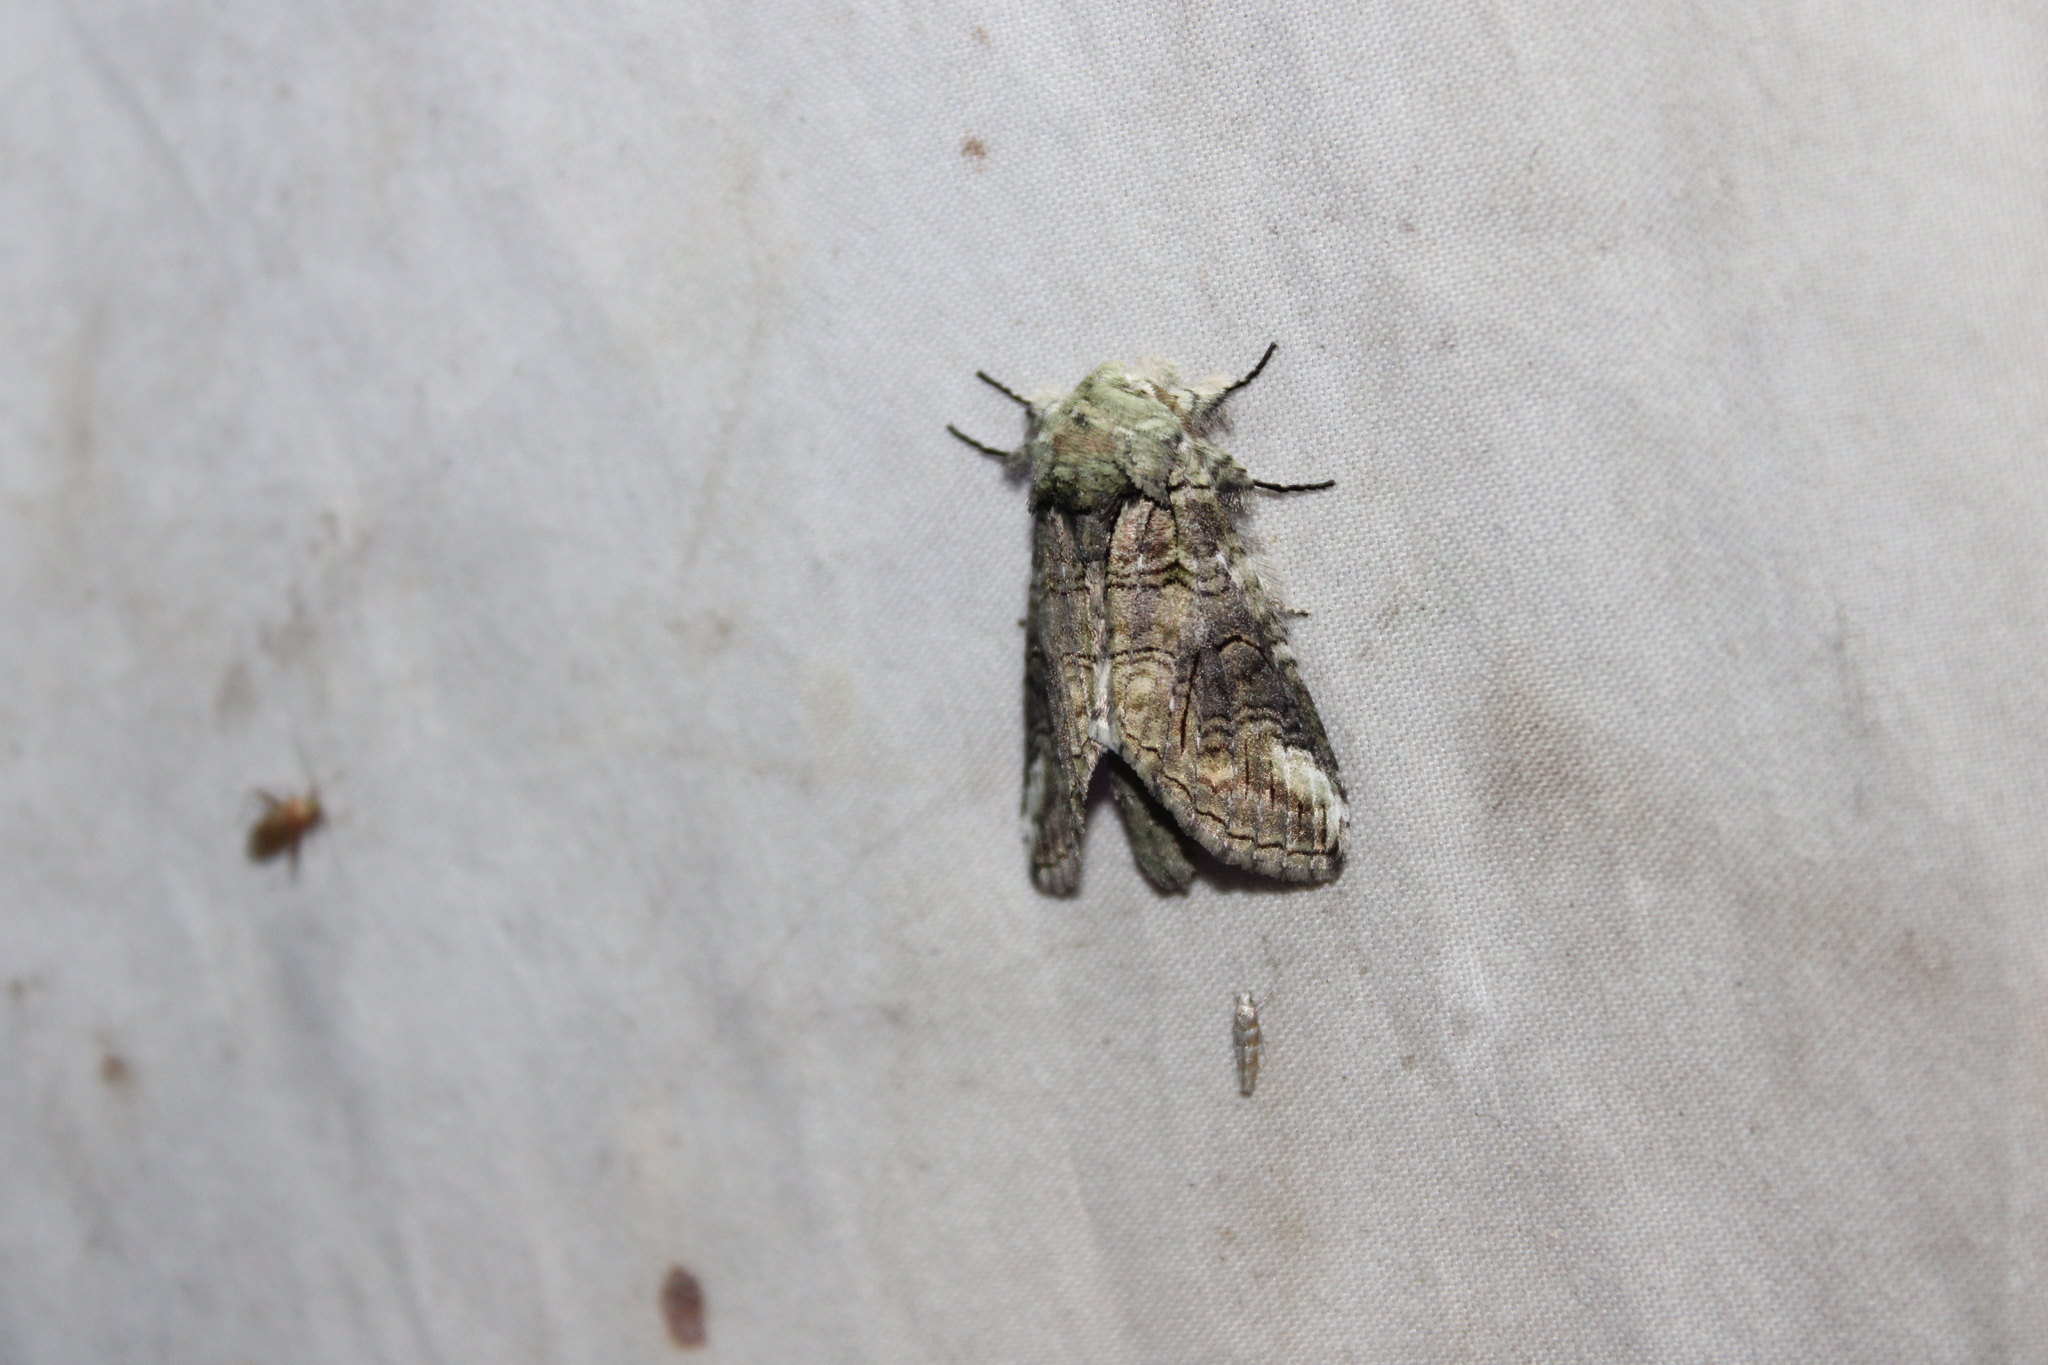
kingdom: Animalia
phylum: Arthropoda
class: Insecta
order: Lepidoptera
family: Notodontidae
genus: Heterocampa
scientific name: Heterocampa obliqua
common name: Oblique heterocampa
